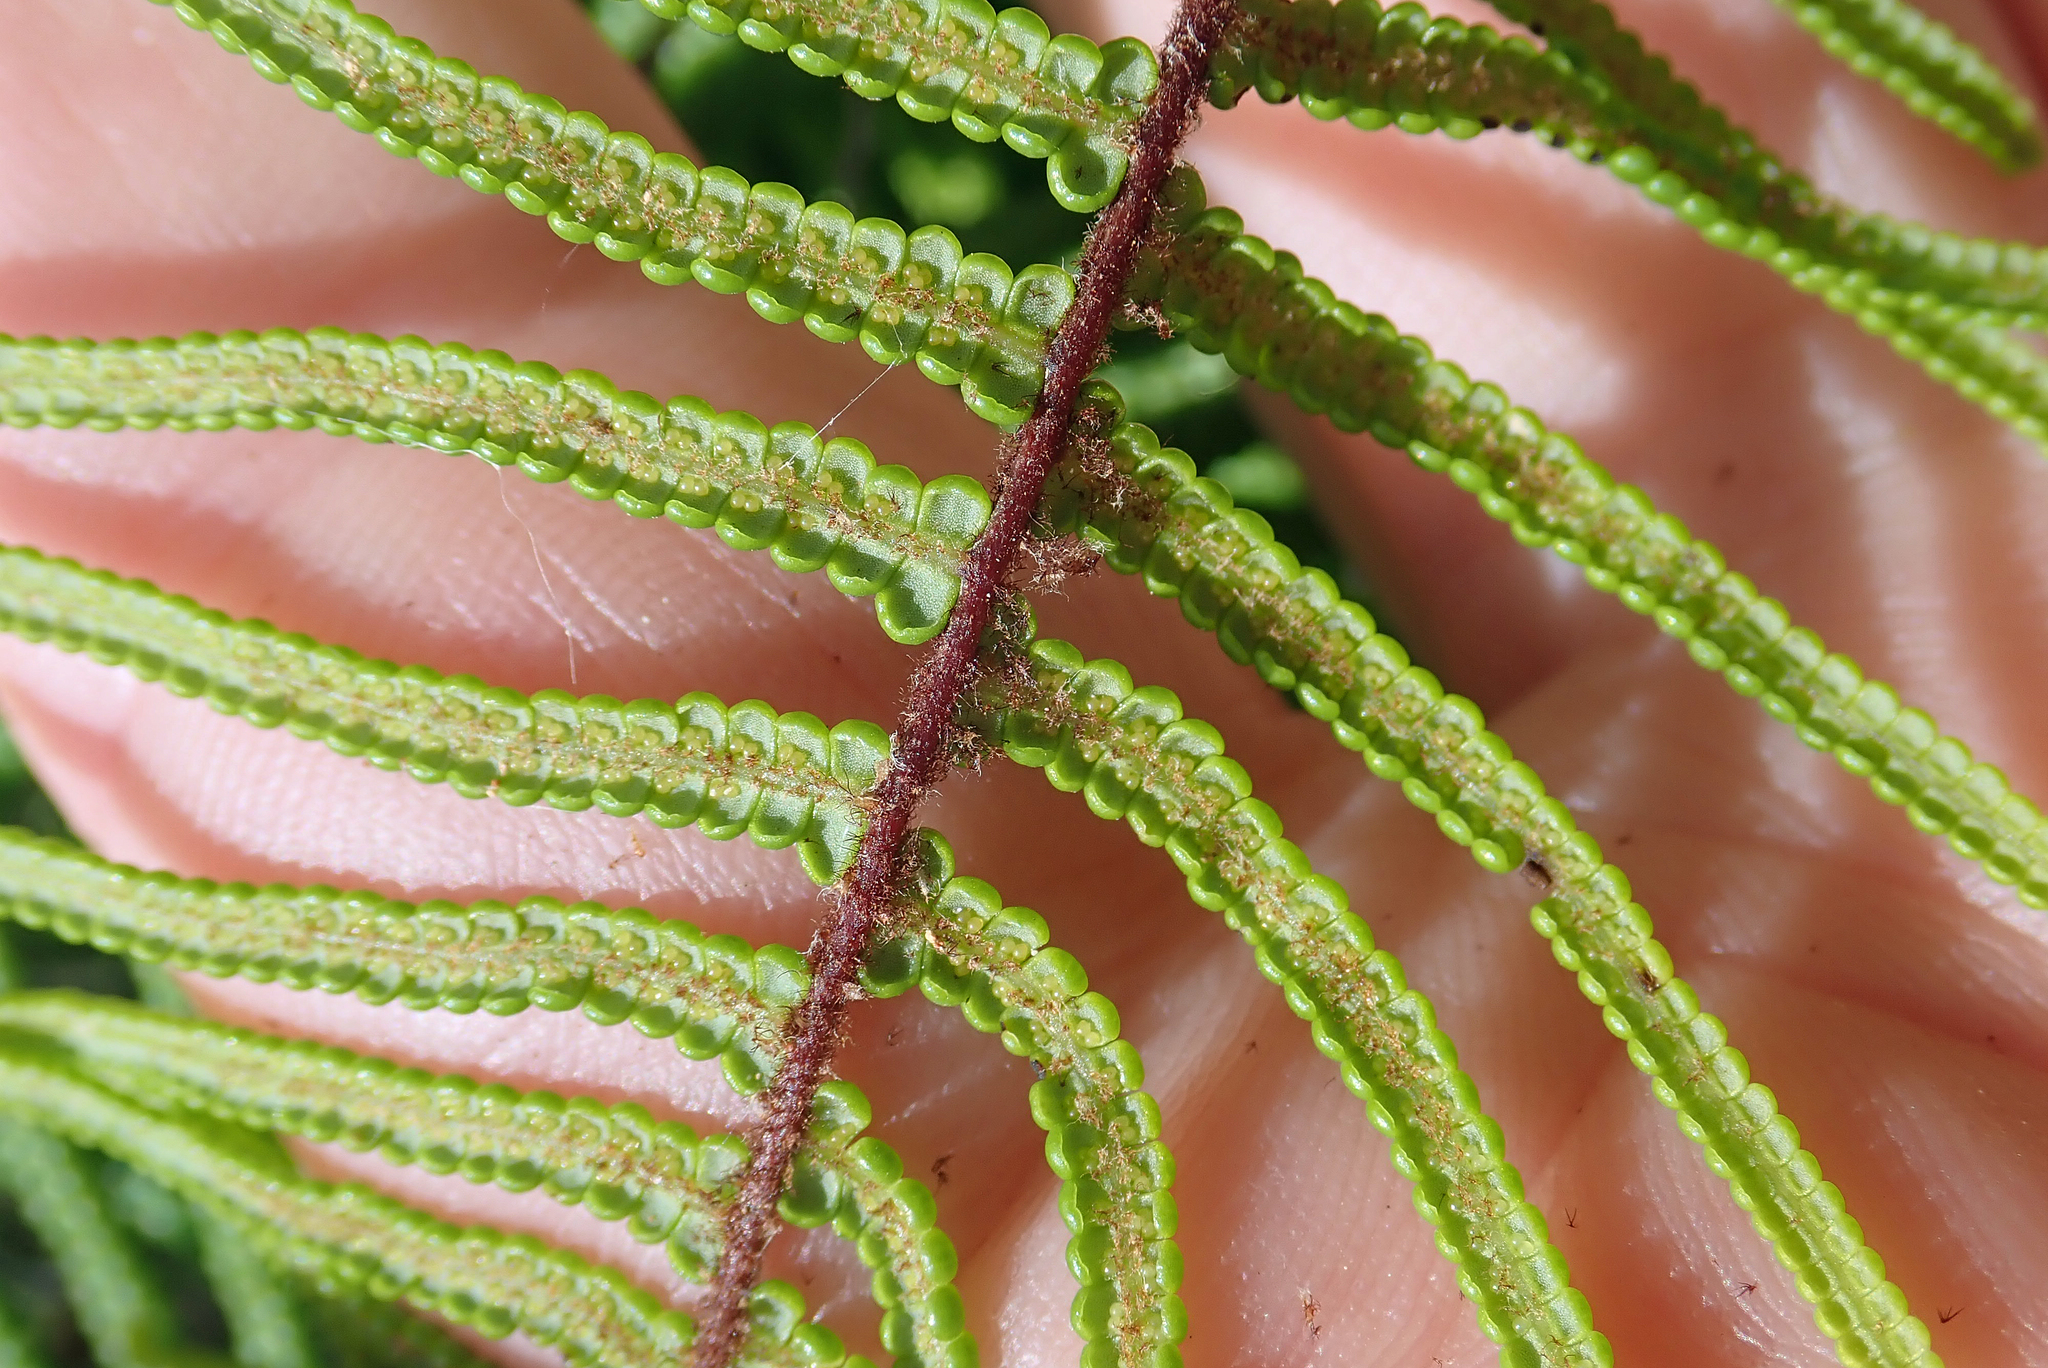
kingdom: Plantae
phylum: Tracheophyta
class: Polypodiopsida
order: Gleicheniales
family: Gleicheniaceae
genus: Gleichenia
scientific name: Gleichenia dicarpa
